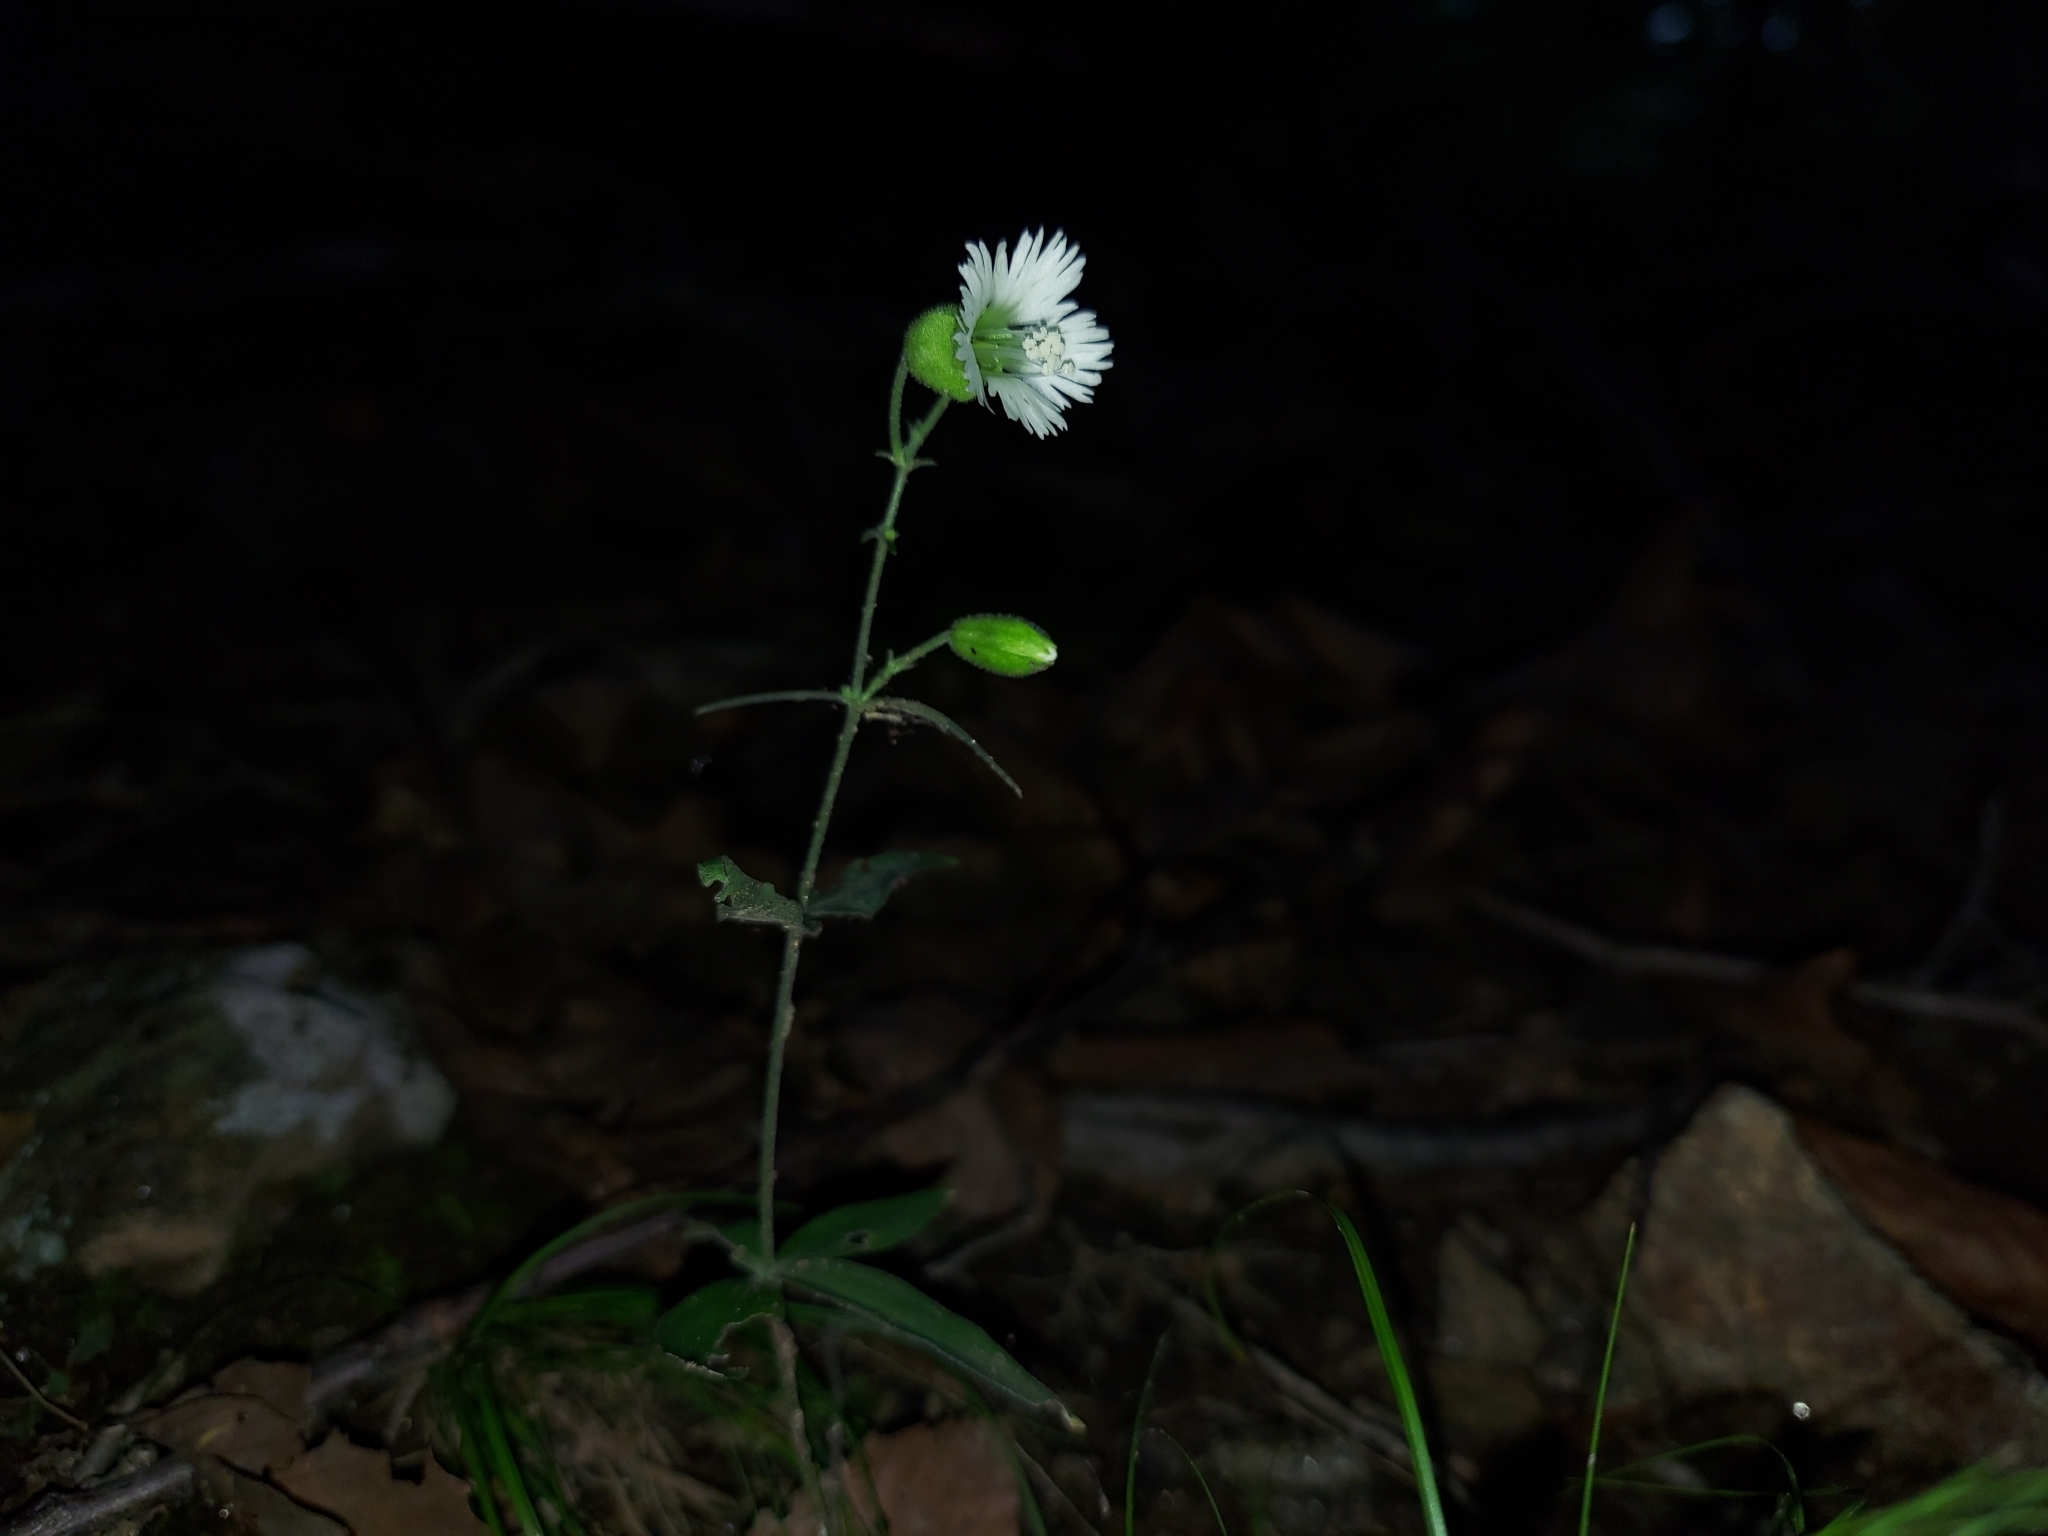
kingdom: Plantae
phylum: Tracheophyta
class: Magnoliopsida
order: Caryophyllales
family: Caryophyllaceae
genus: Silene
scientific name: Silene stellata
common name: Starry campion
